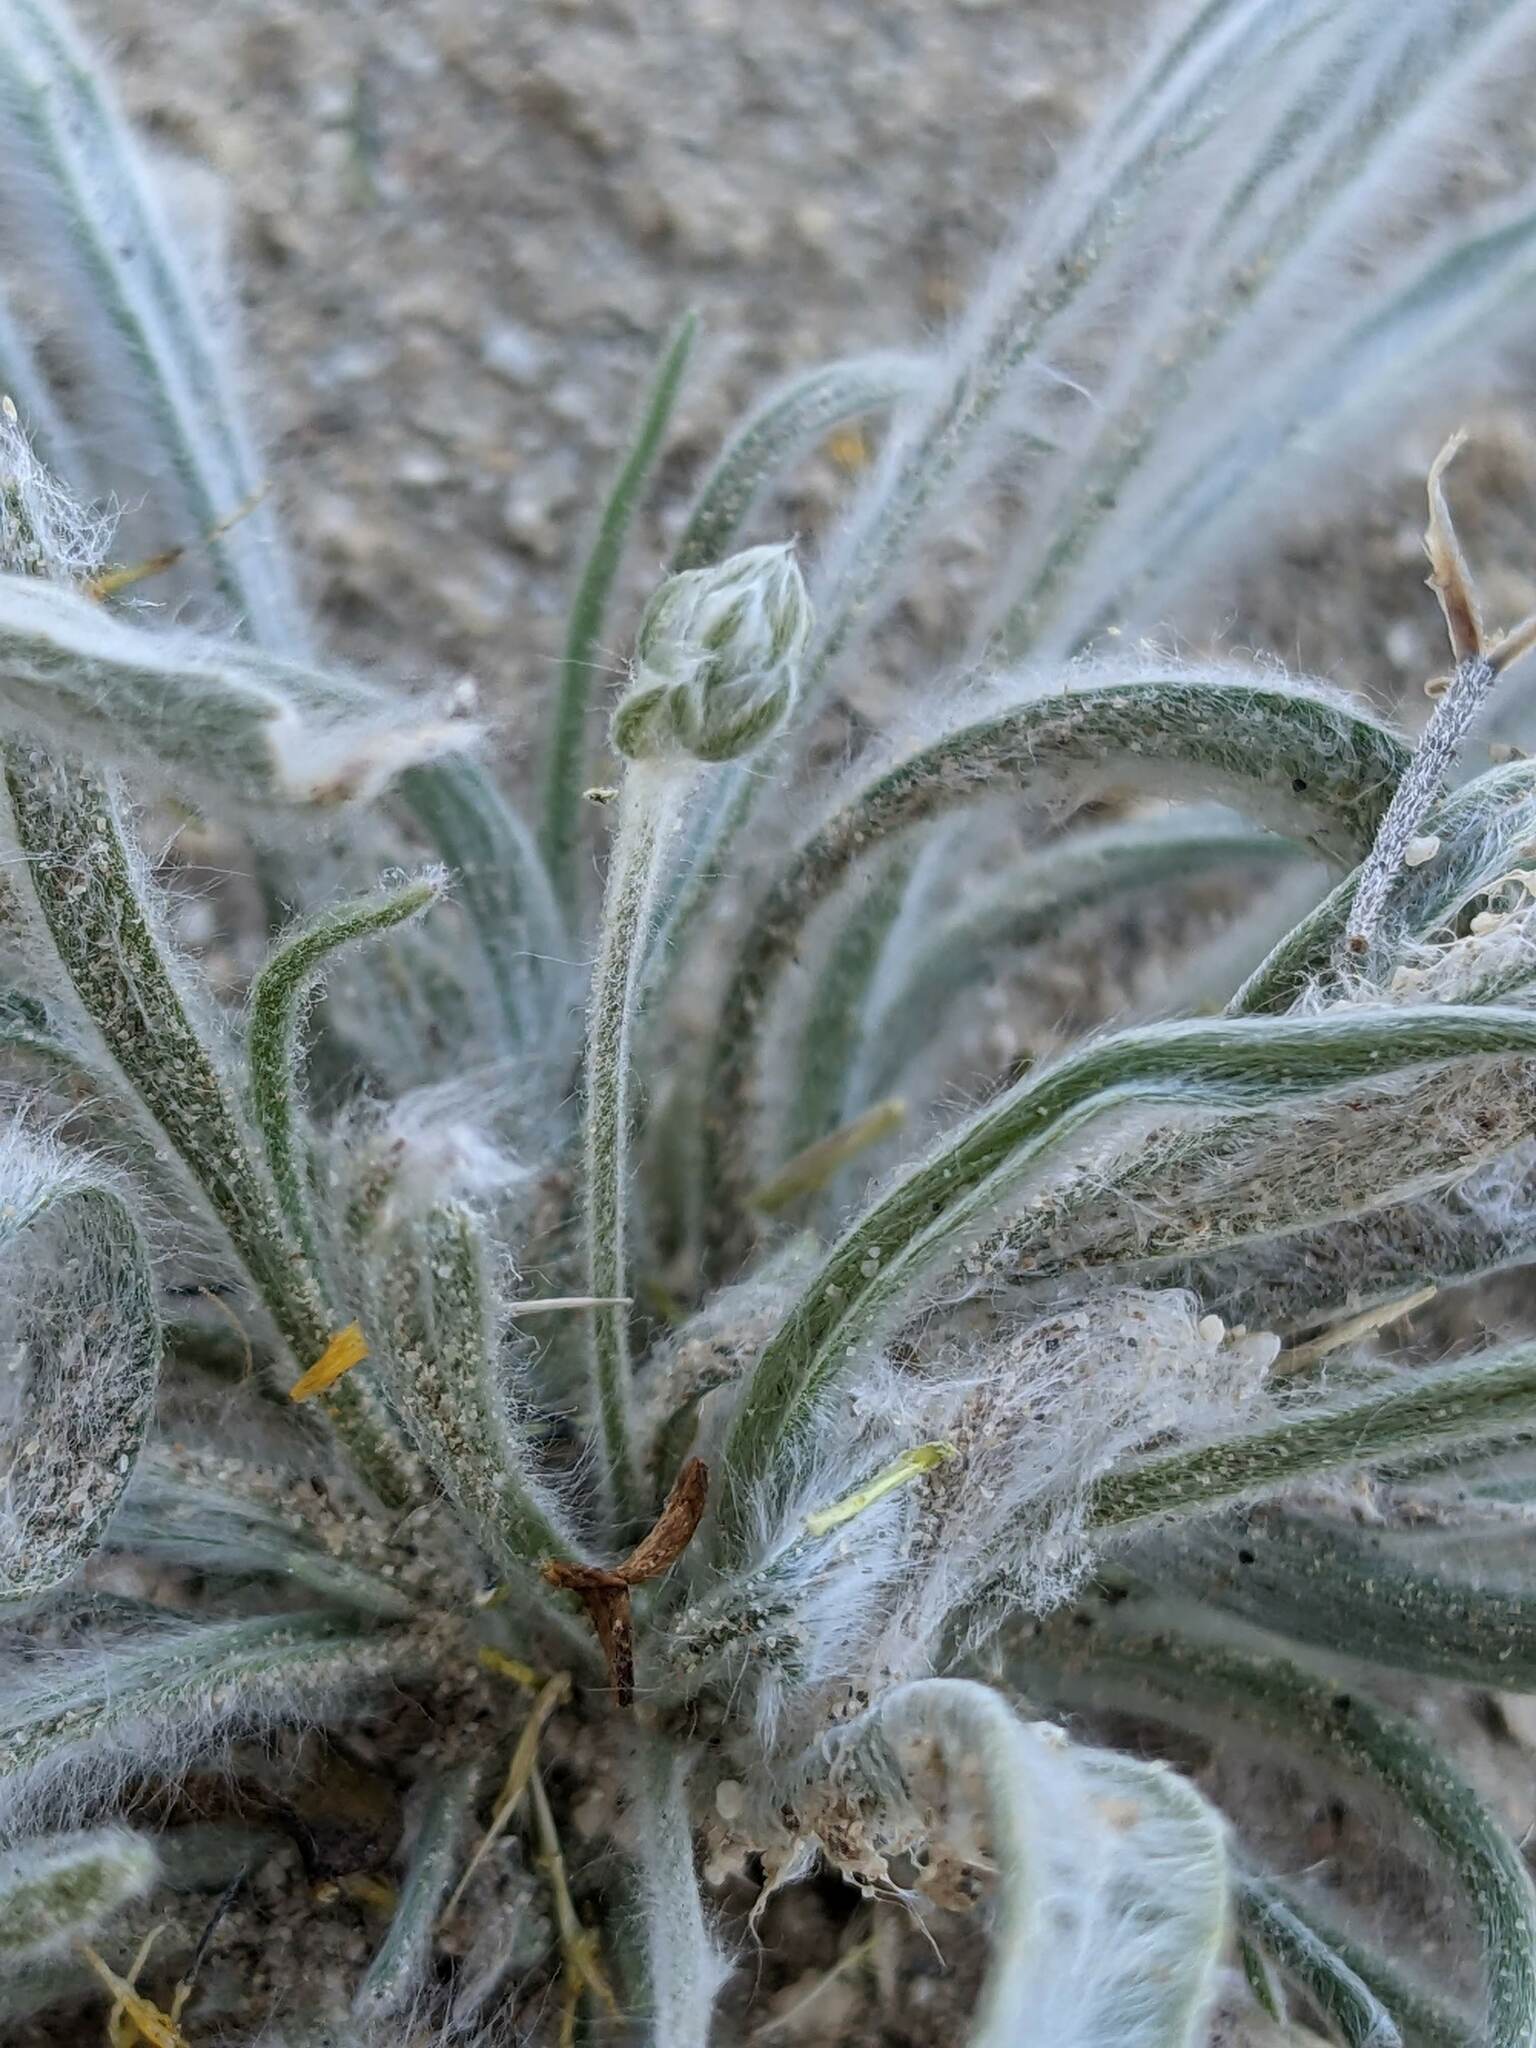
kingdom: Plantae
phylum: Tracheophyta
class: Magnoliopsida
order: Lamiales
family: Plantaginaceae
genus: Plantago
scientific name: Plantago ovata
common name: Blond plantain
